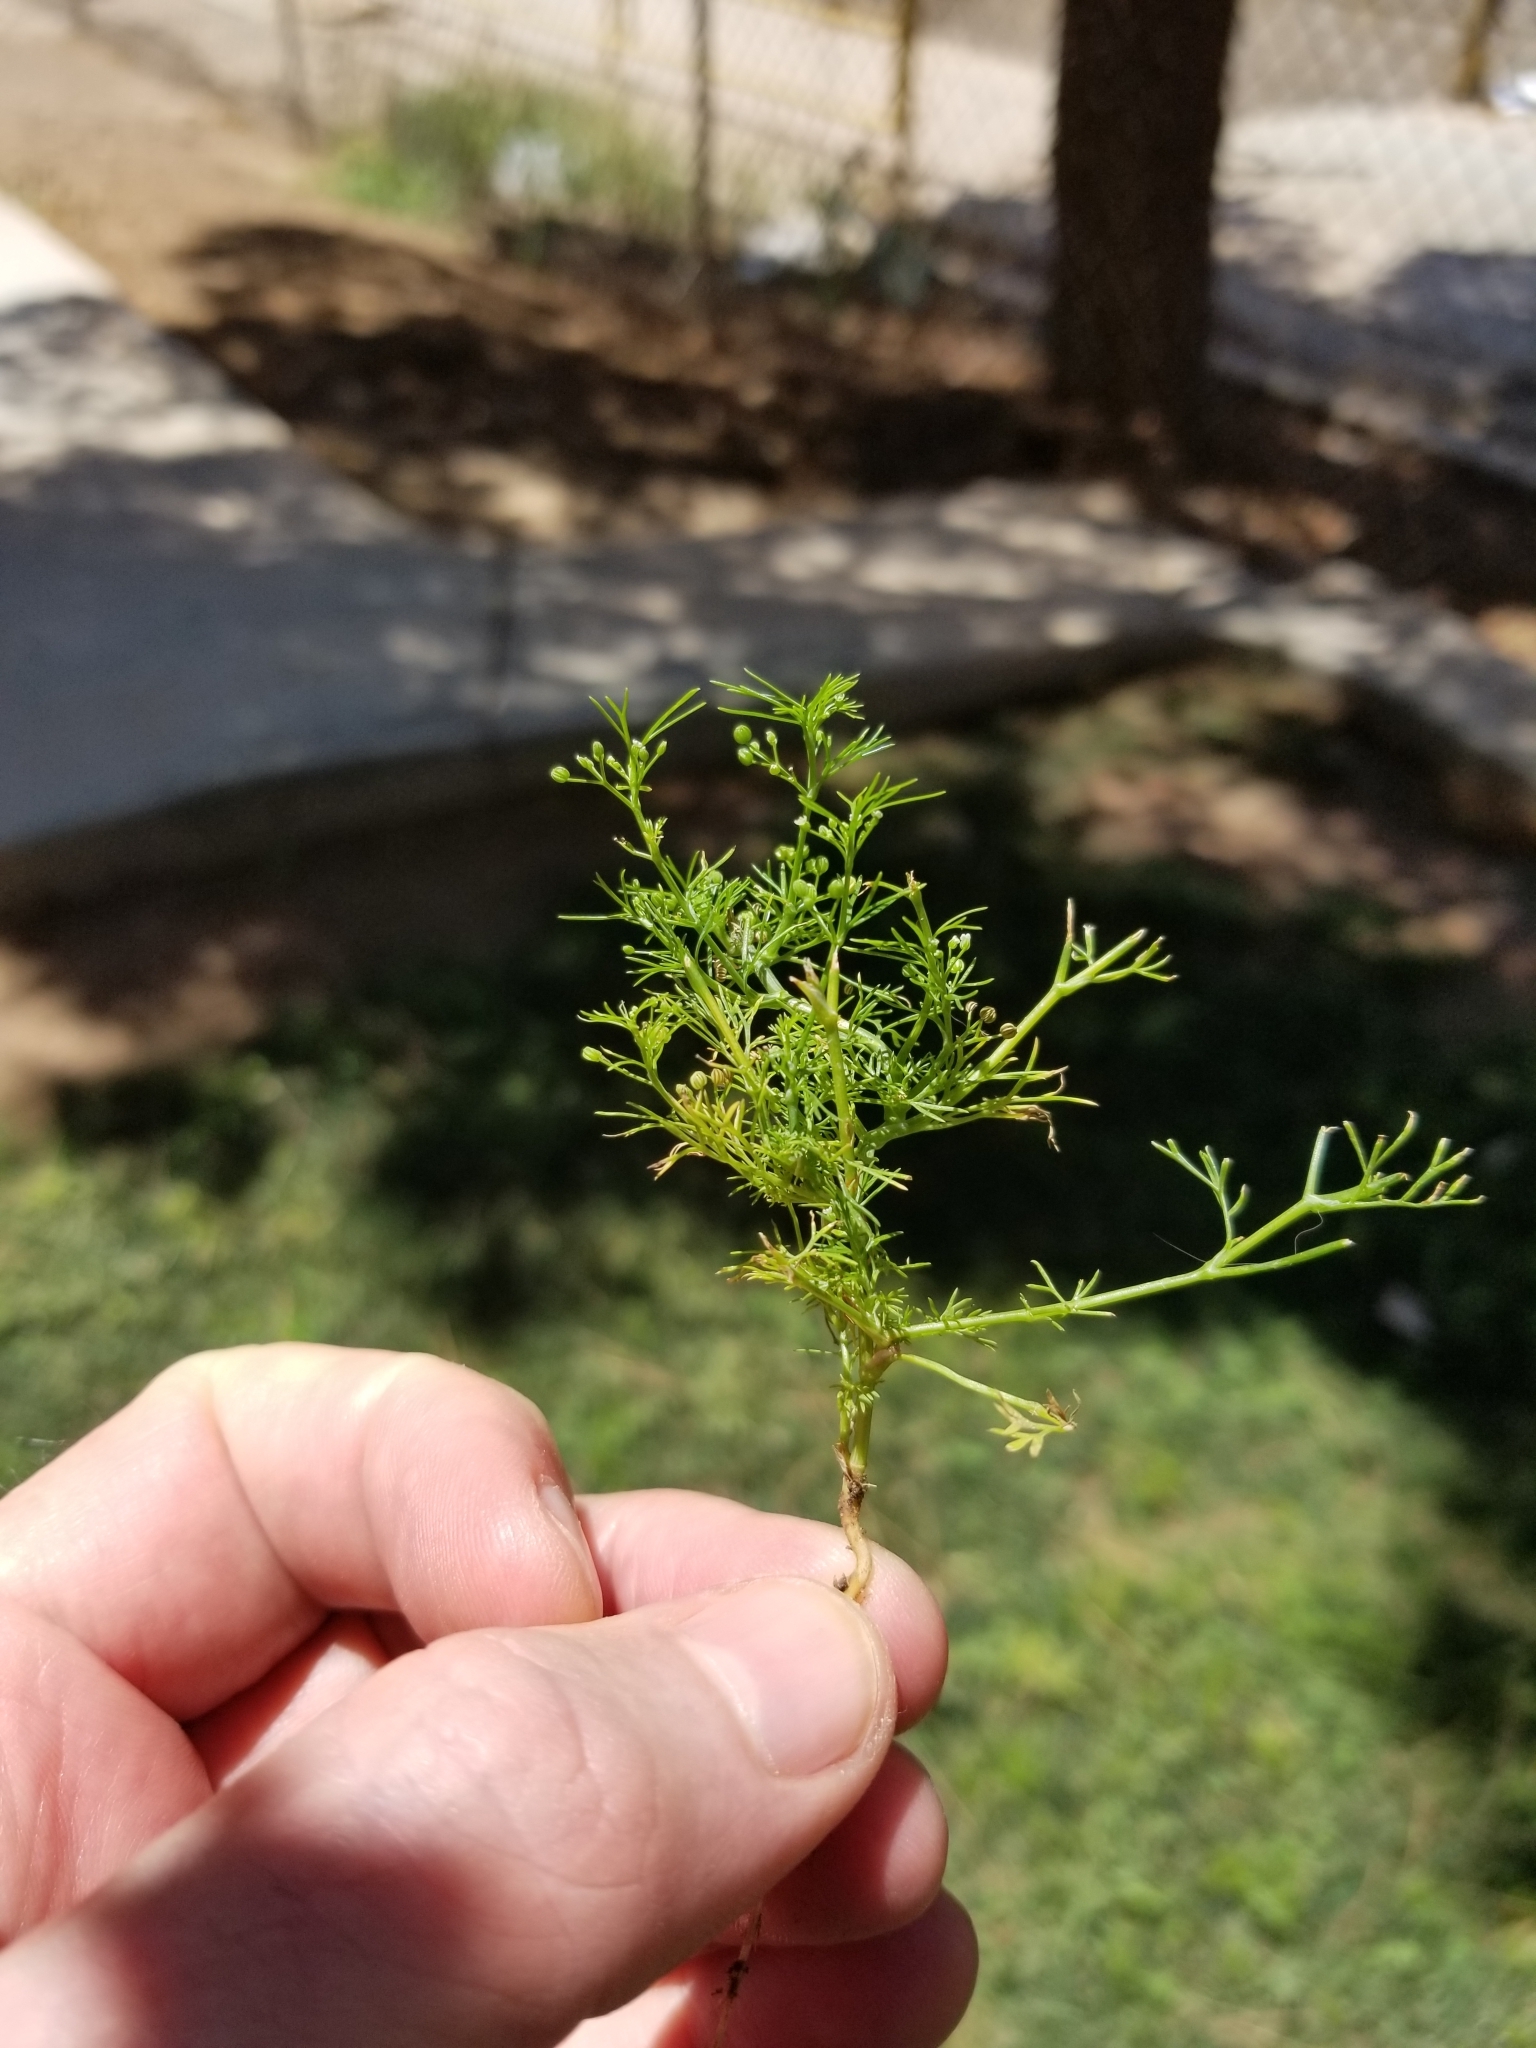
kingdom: Plantae
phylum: Tracheophyta
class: Magnoliopsida
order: Apiales
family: Apiaceae
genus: Cyclospermum
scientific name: Cyclospermum leptophyllum
